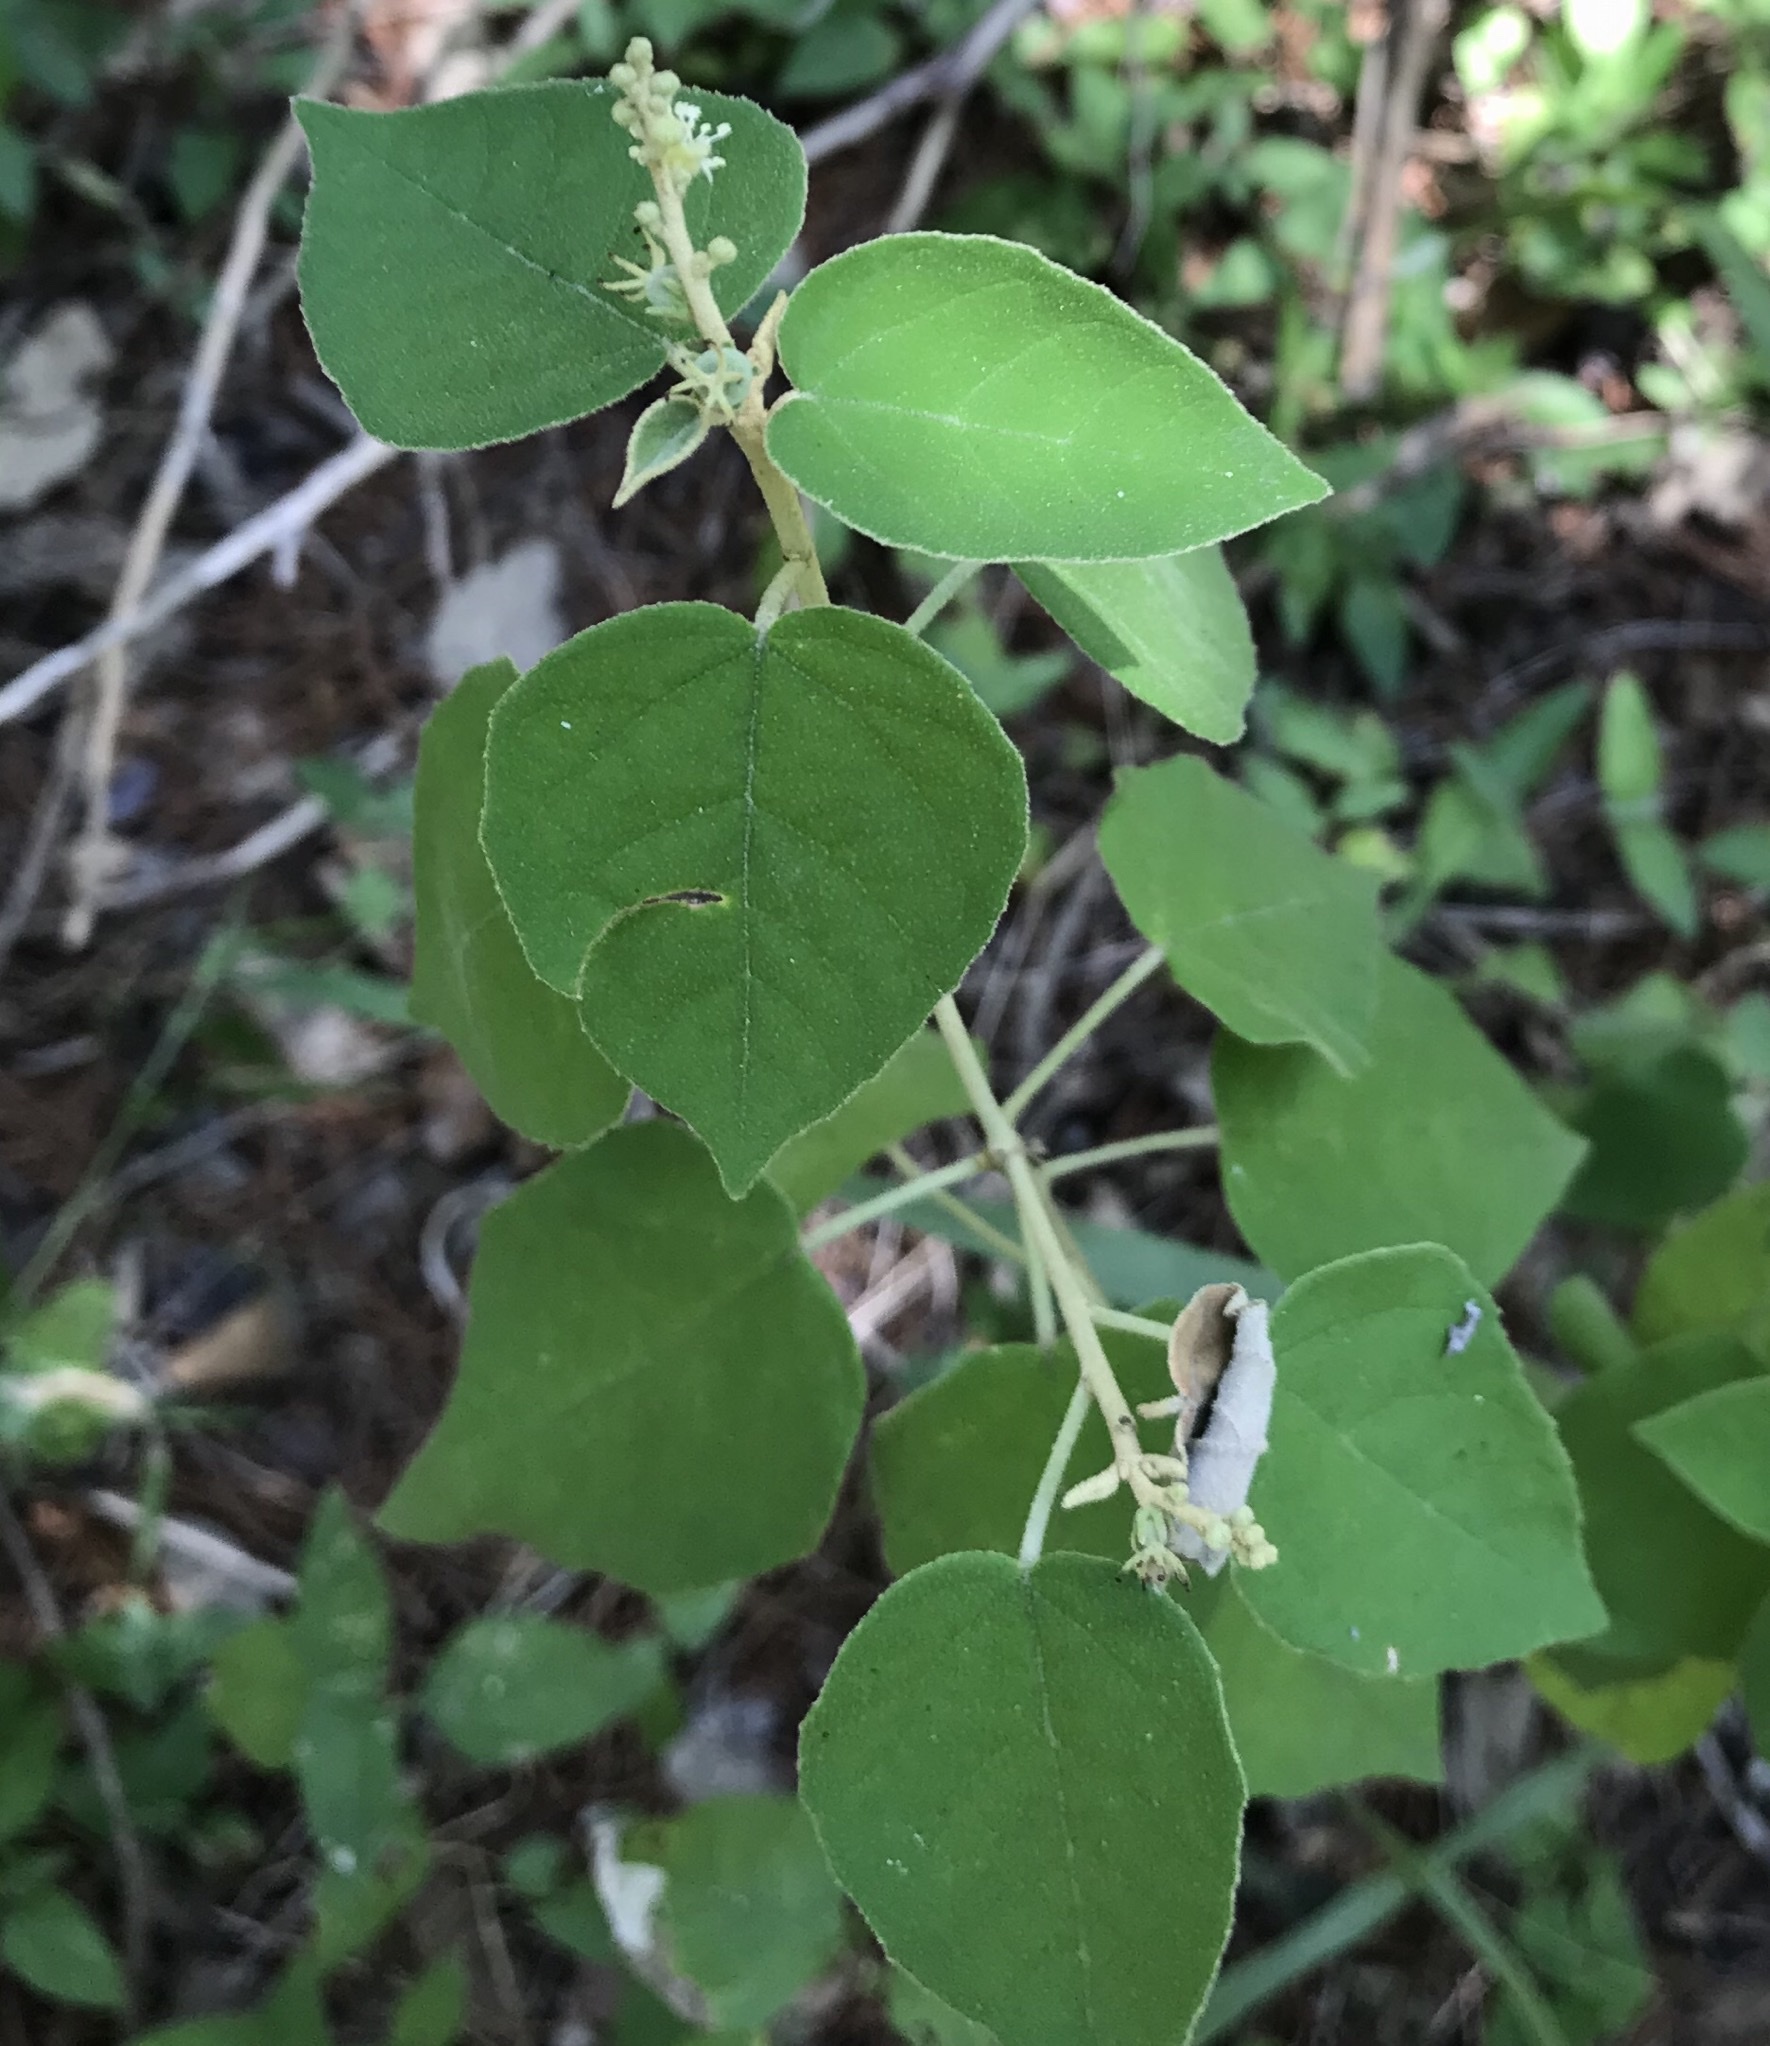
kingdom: Plantae
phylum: Tracheophyta
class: Magnoliopsida
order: Malpighiales
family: Euphorbiaceae
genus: Croton
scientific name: Croton fruticulosus
